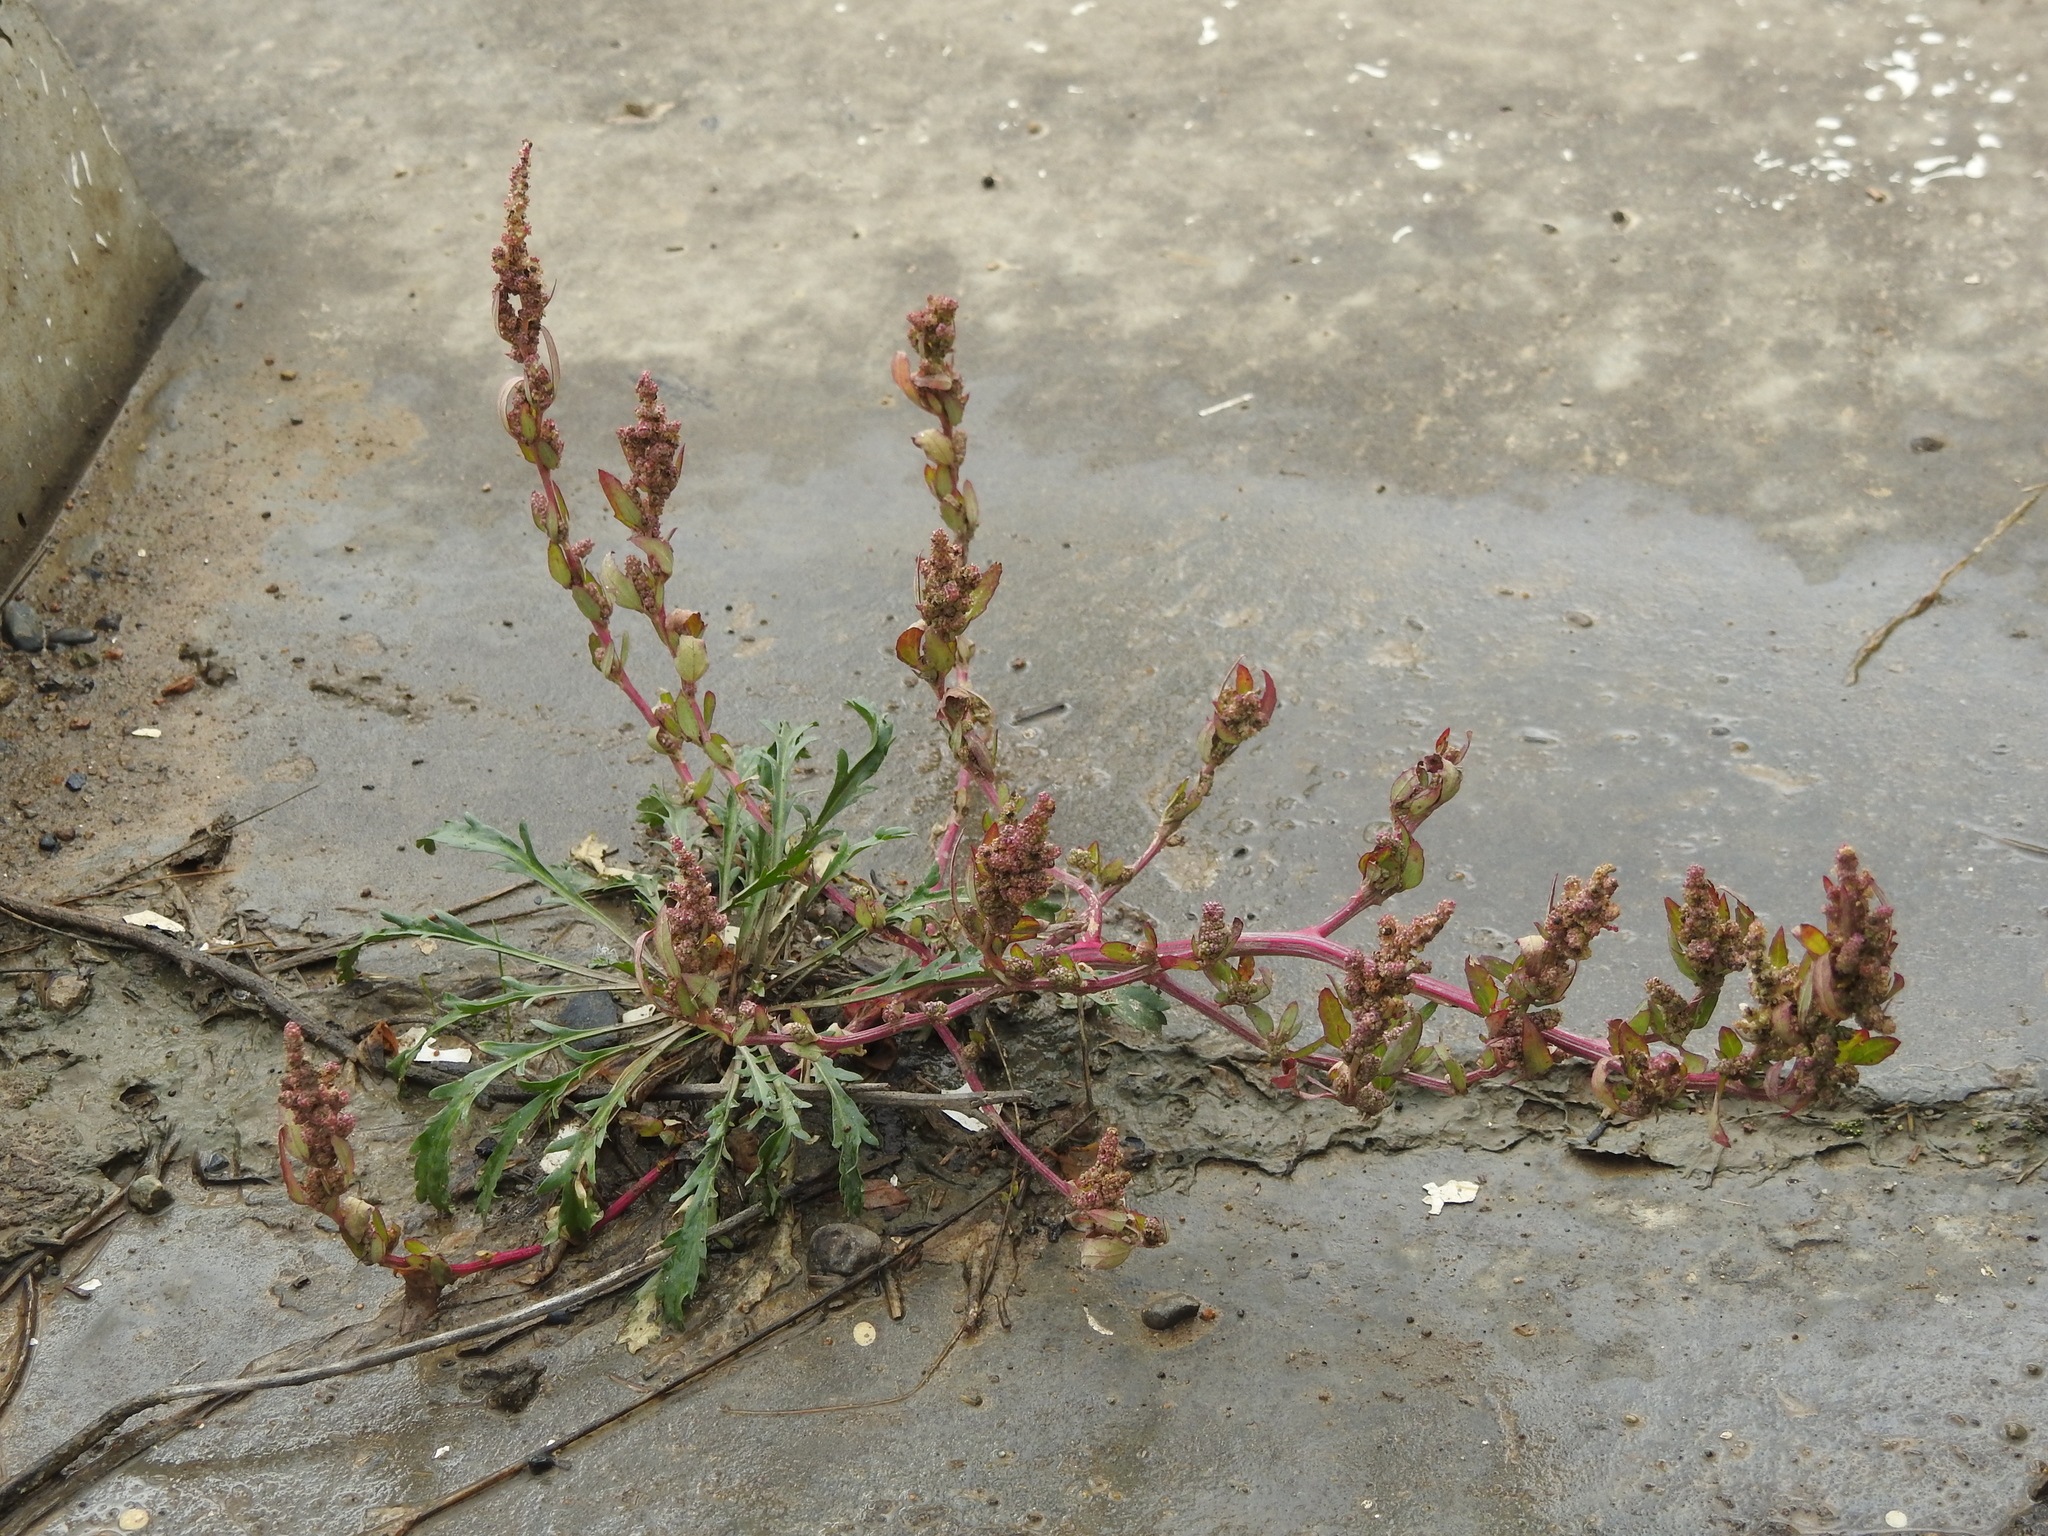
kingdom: Plantae
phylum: Tracheophyta
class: Magnoliopsida
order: Caryophyllales
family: Amaranthaceae
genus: Oxybasis
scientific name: Oxybasis rubra
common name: Red goosefoot
